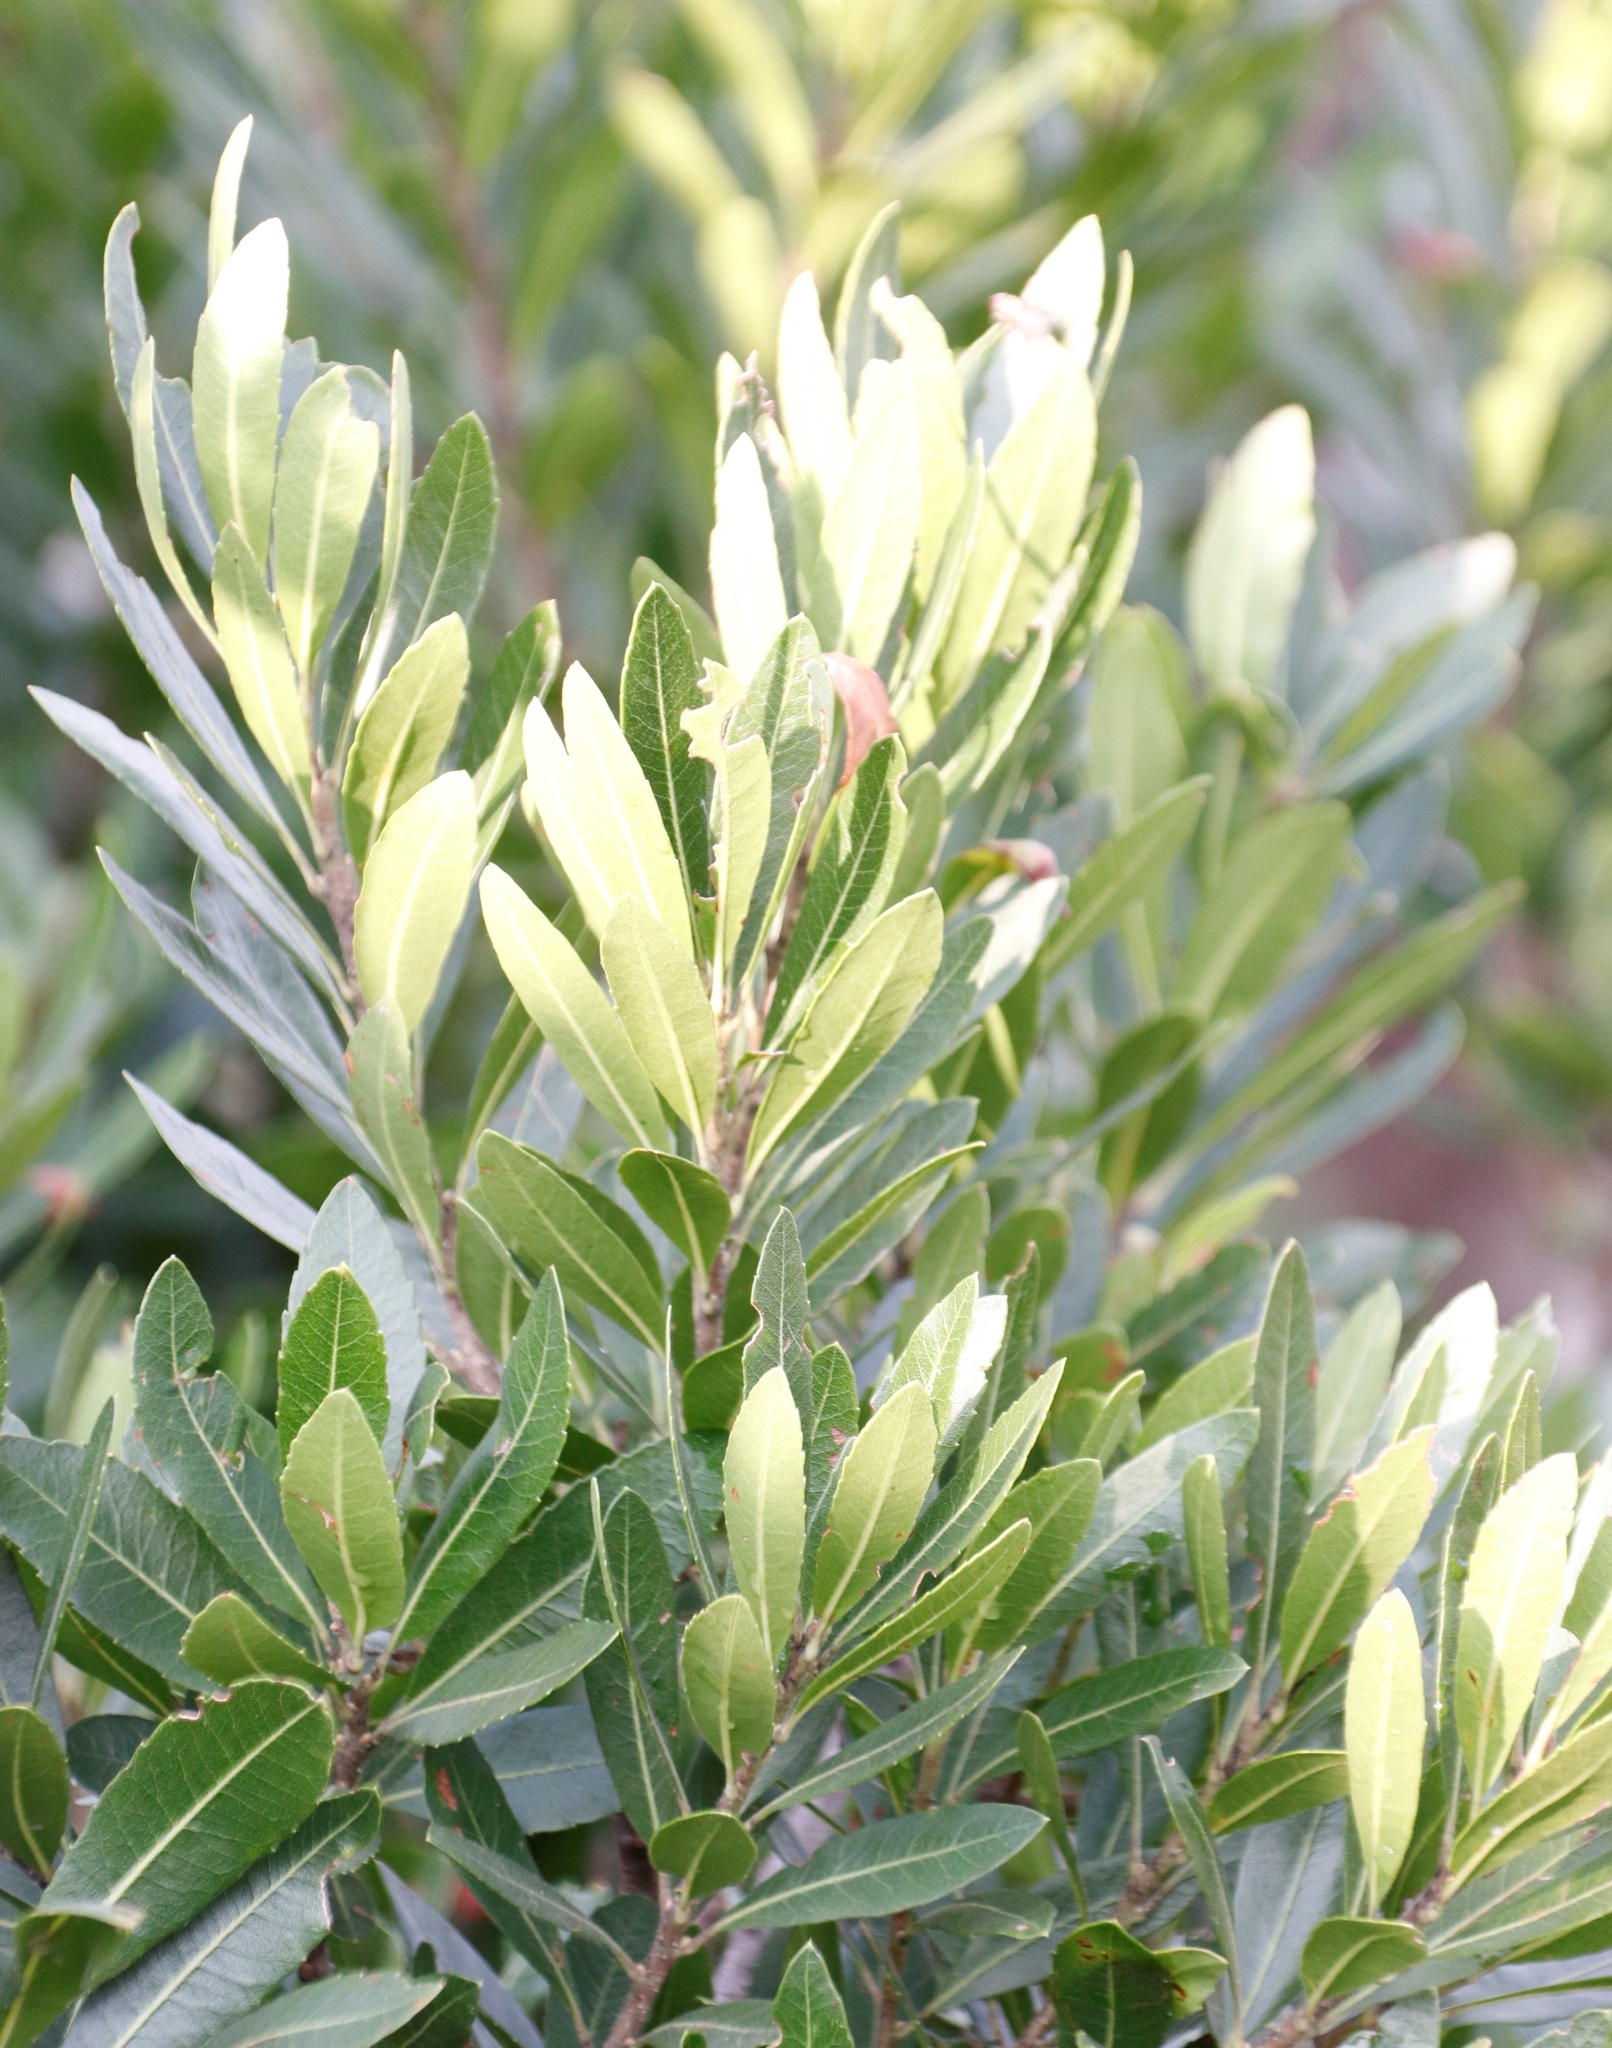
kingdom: Plantae
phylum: Tracheophyta
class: Magnoliopsida
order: Fagales
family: Myricaceae
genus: Morella
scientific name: Morella pilulifera
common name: Broad-leaved waxberry
